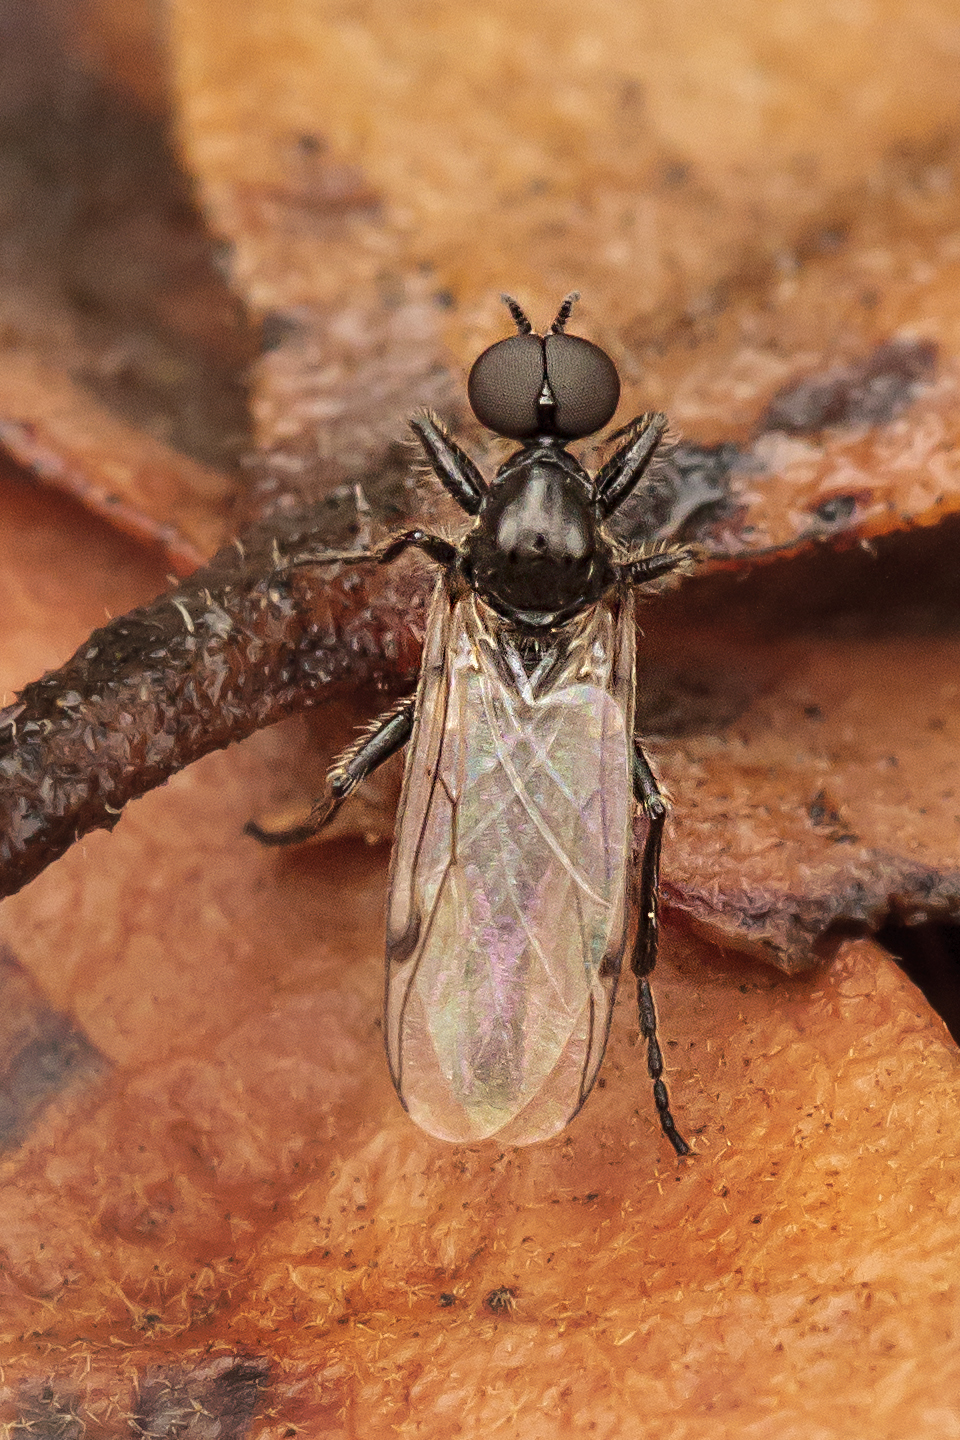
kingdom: Animalia
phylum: Arthropoda
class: Insecta
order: Diptera
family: Bibionidae
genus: Bibiodes
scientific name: Bibiodes halteralis
